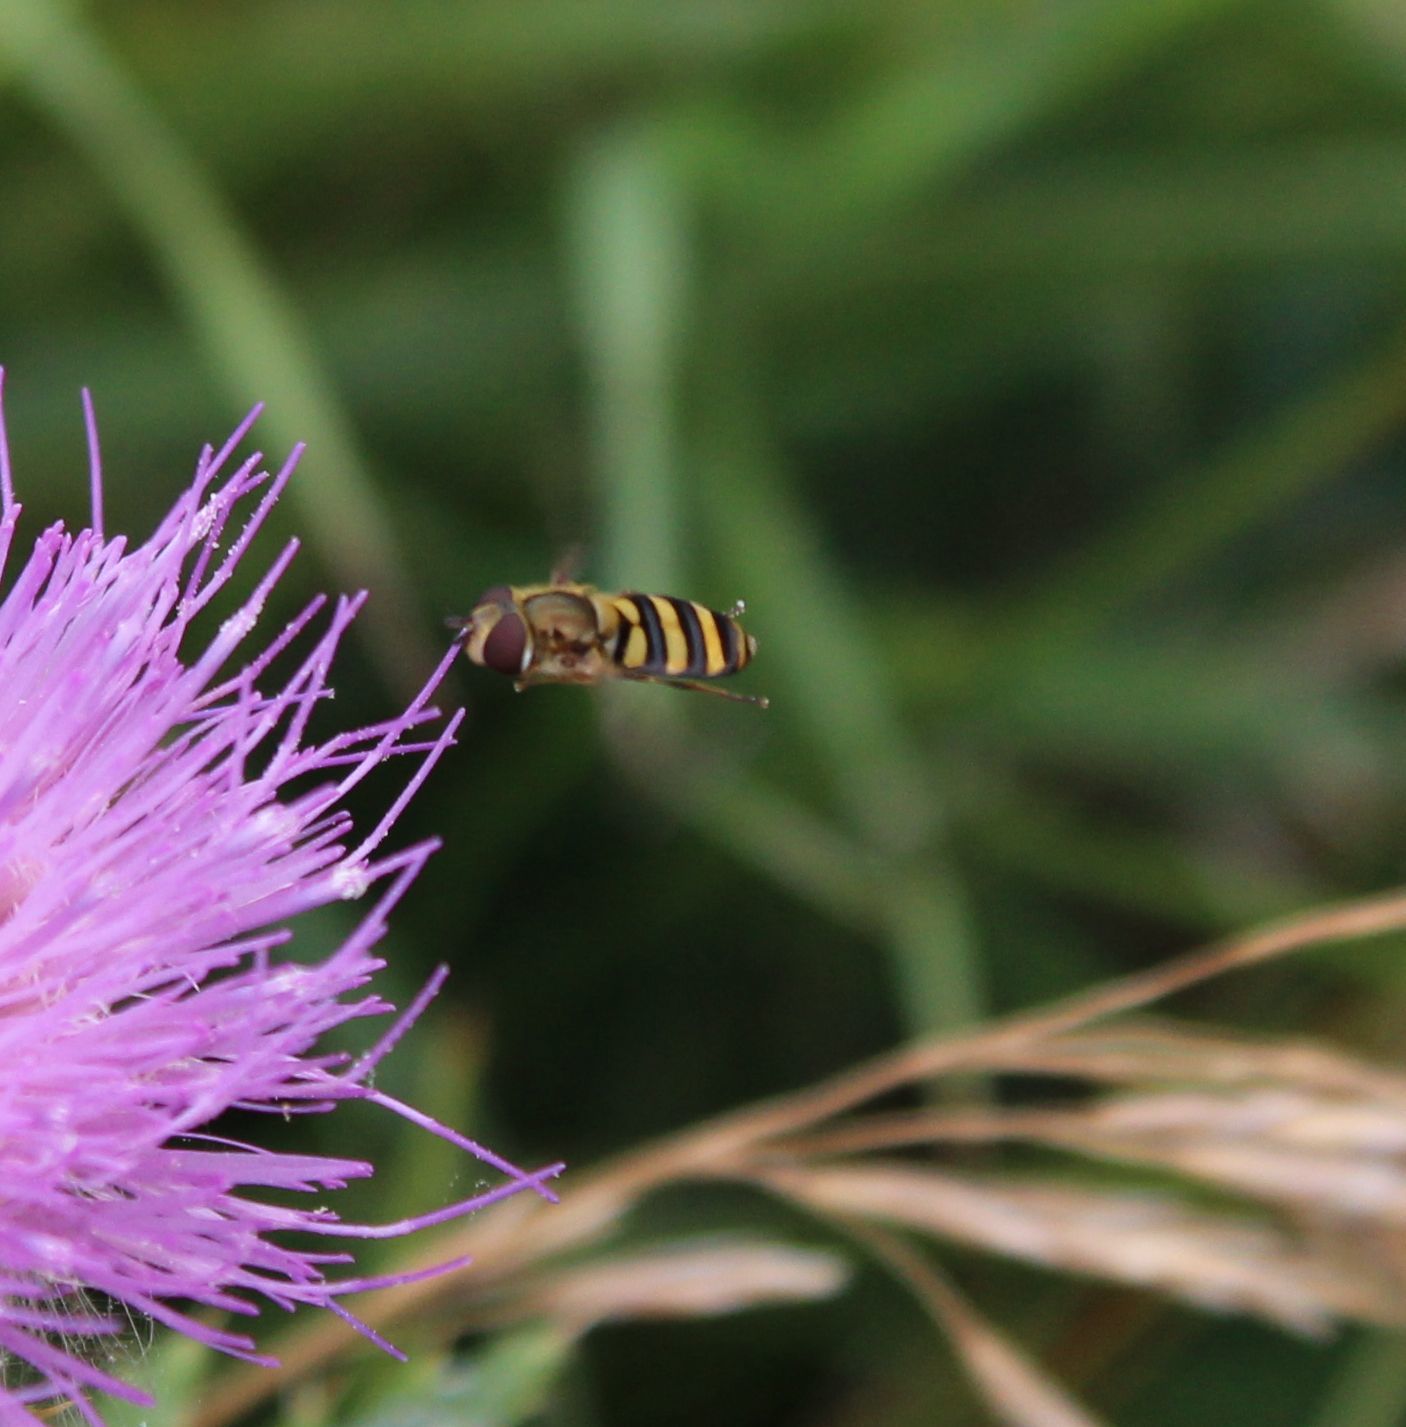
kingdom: Animalia
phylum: Arthropoda
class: Insecta
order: Diptera
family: Syrphidae
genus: Eupeodes
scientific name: Eupeodes
